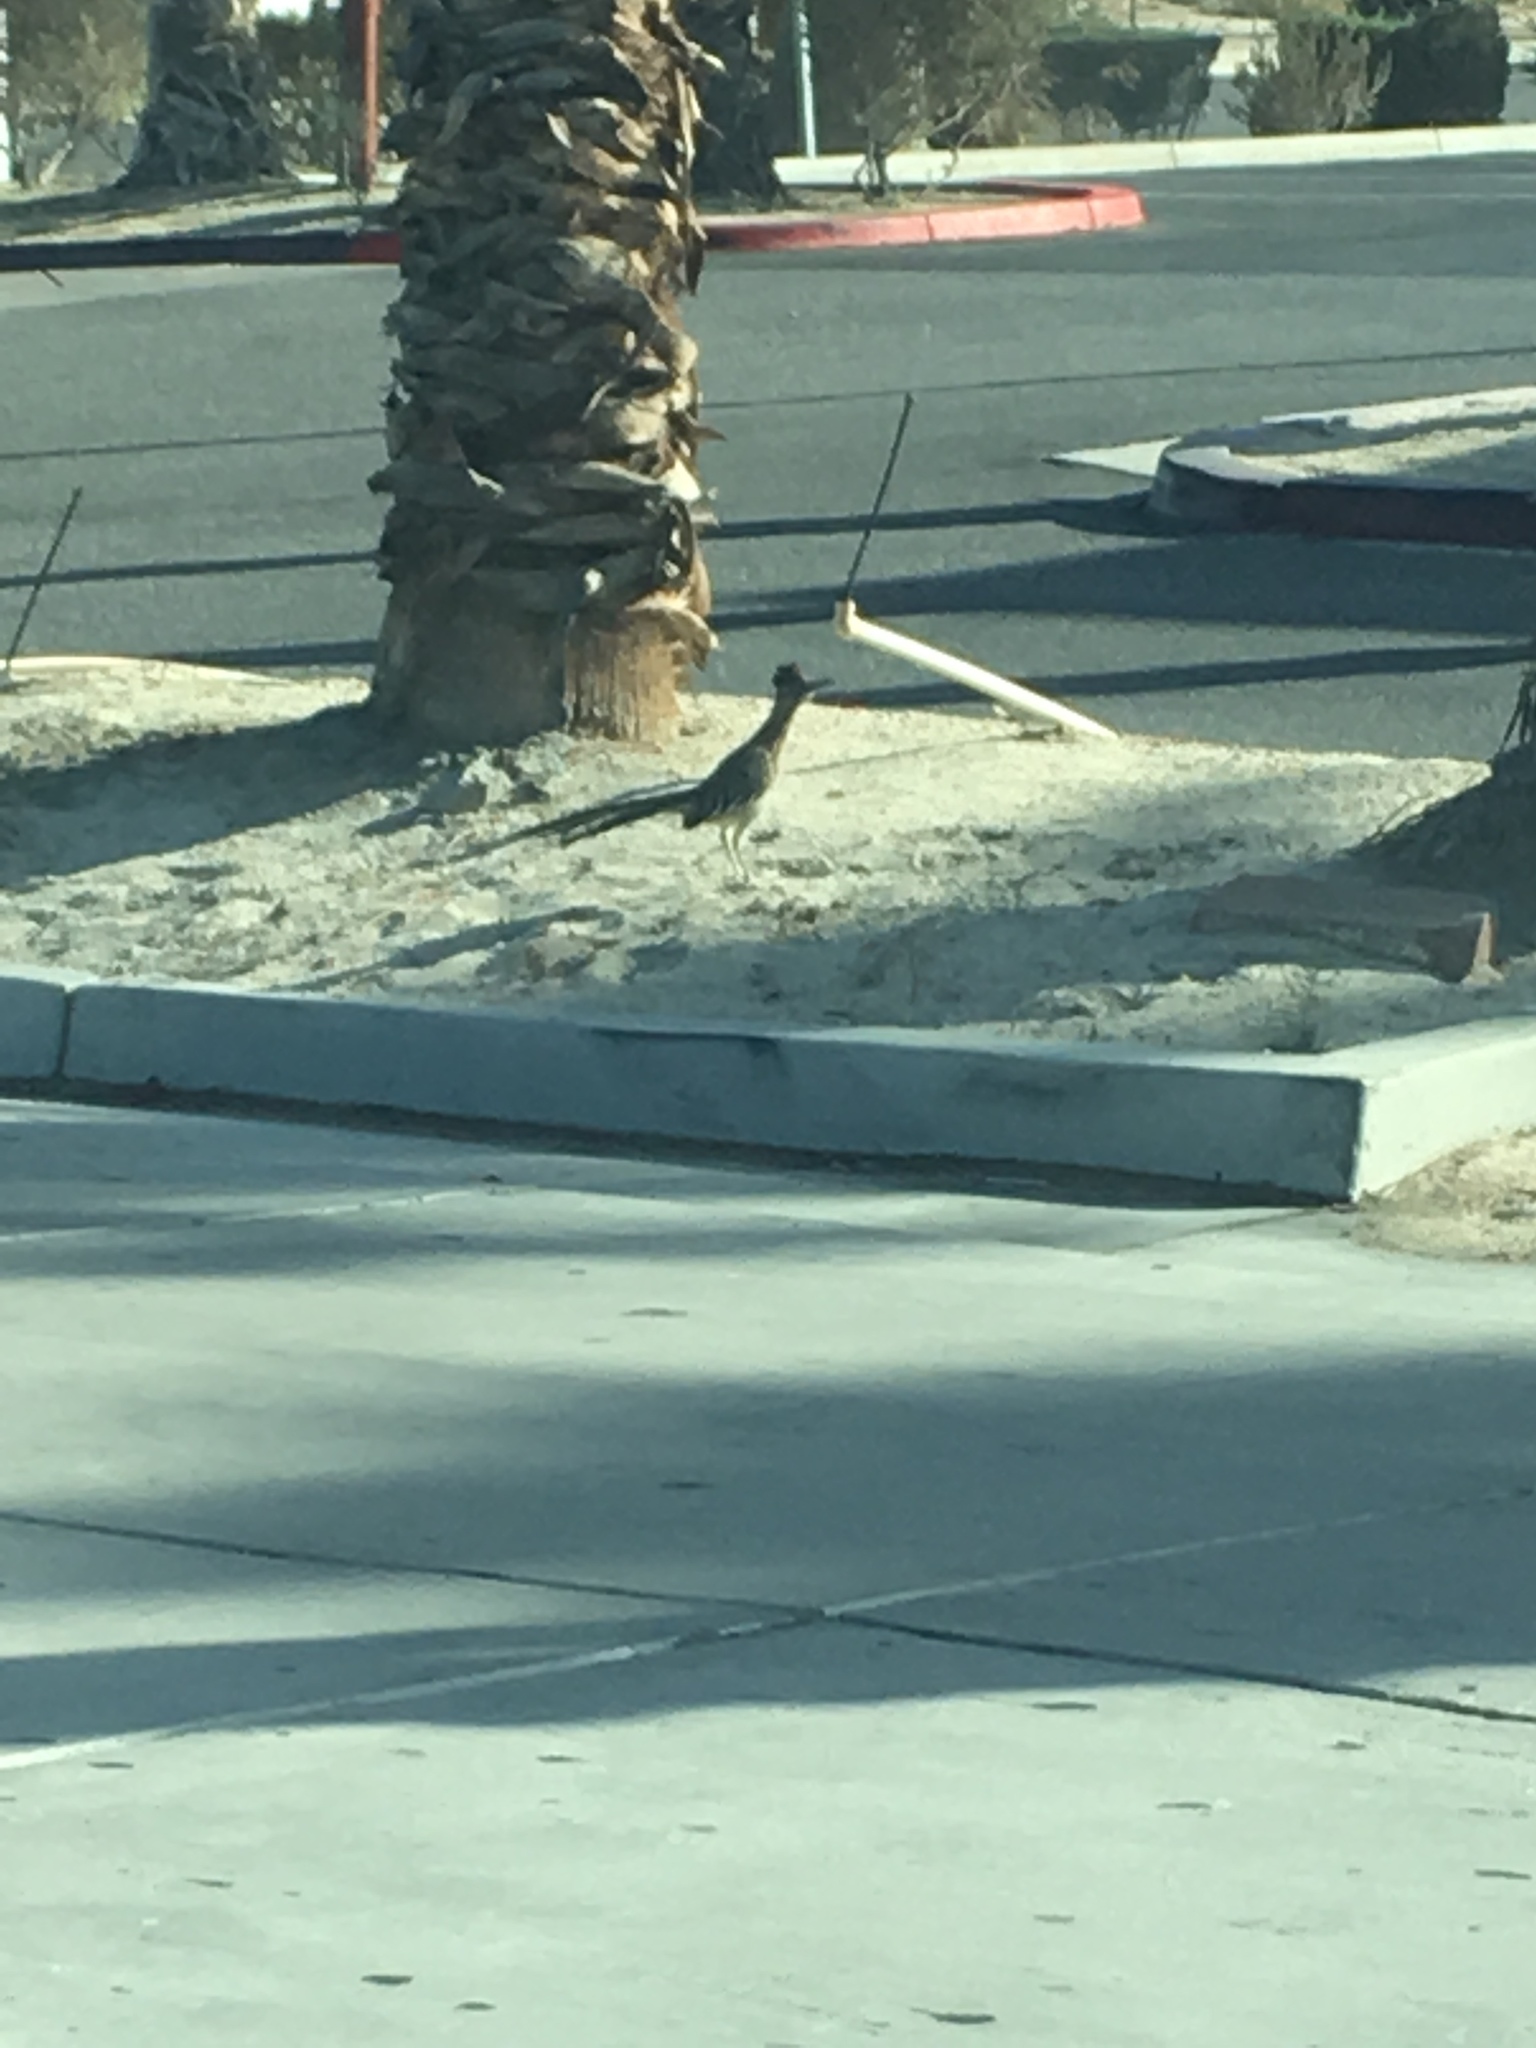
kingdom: Animalia
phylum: Chordata
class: Aves
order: Cuculiformes
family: Cuculidae
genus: Geococcyx
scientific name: Geococcyx californianus
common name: Greater roadrunner
